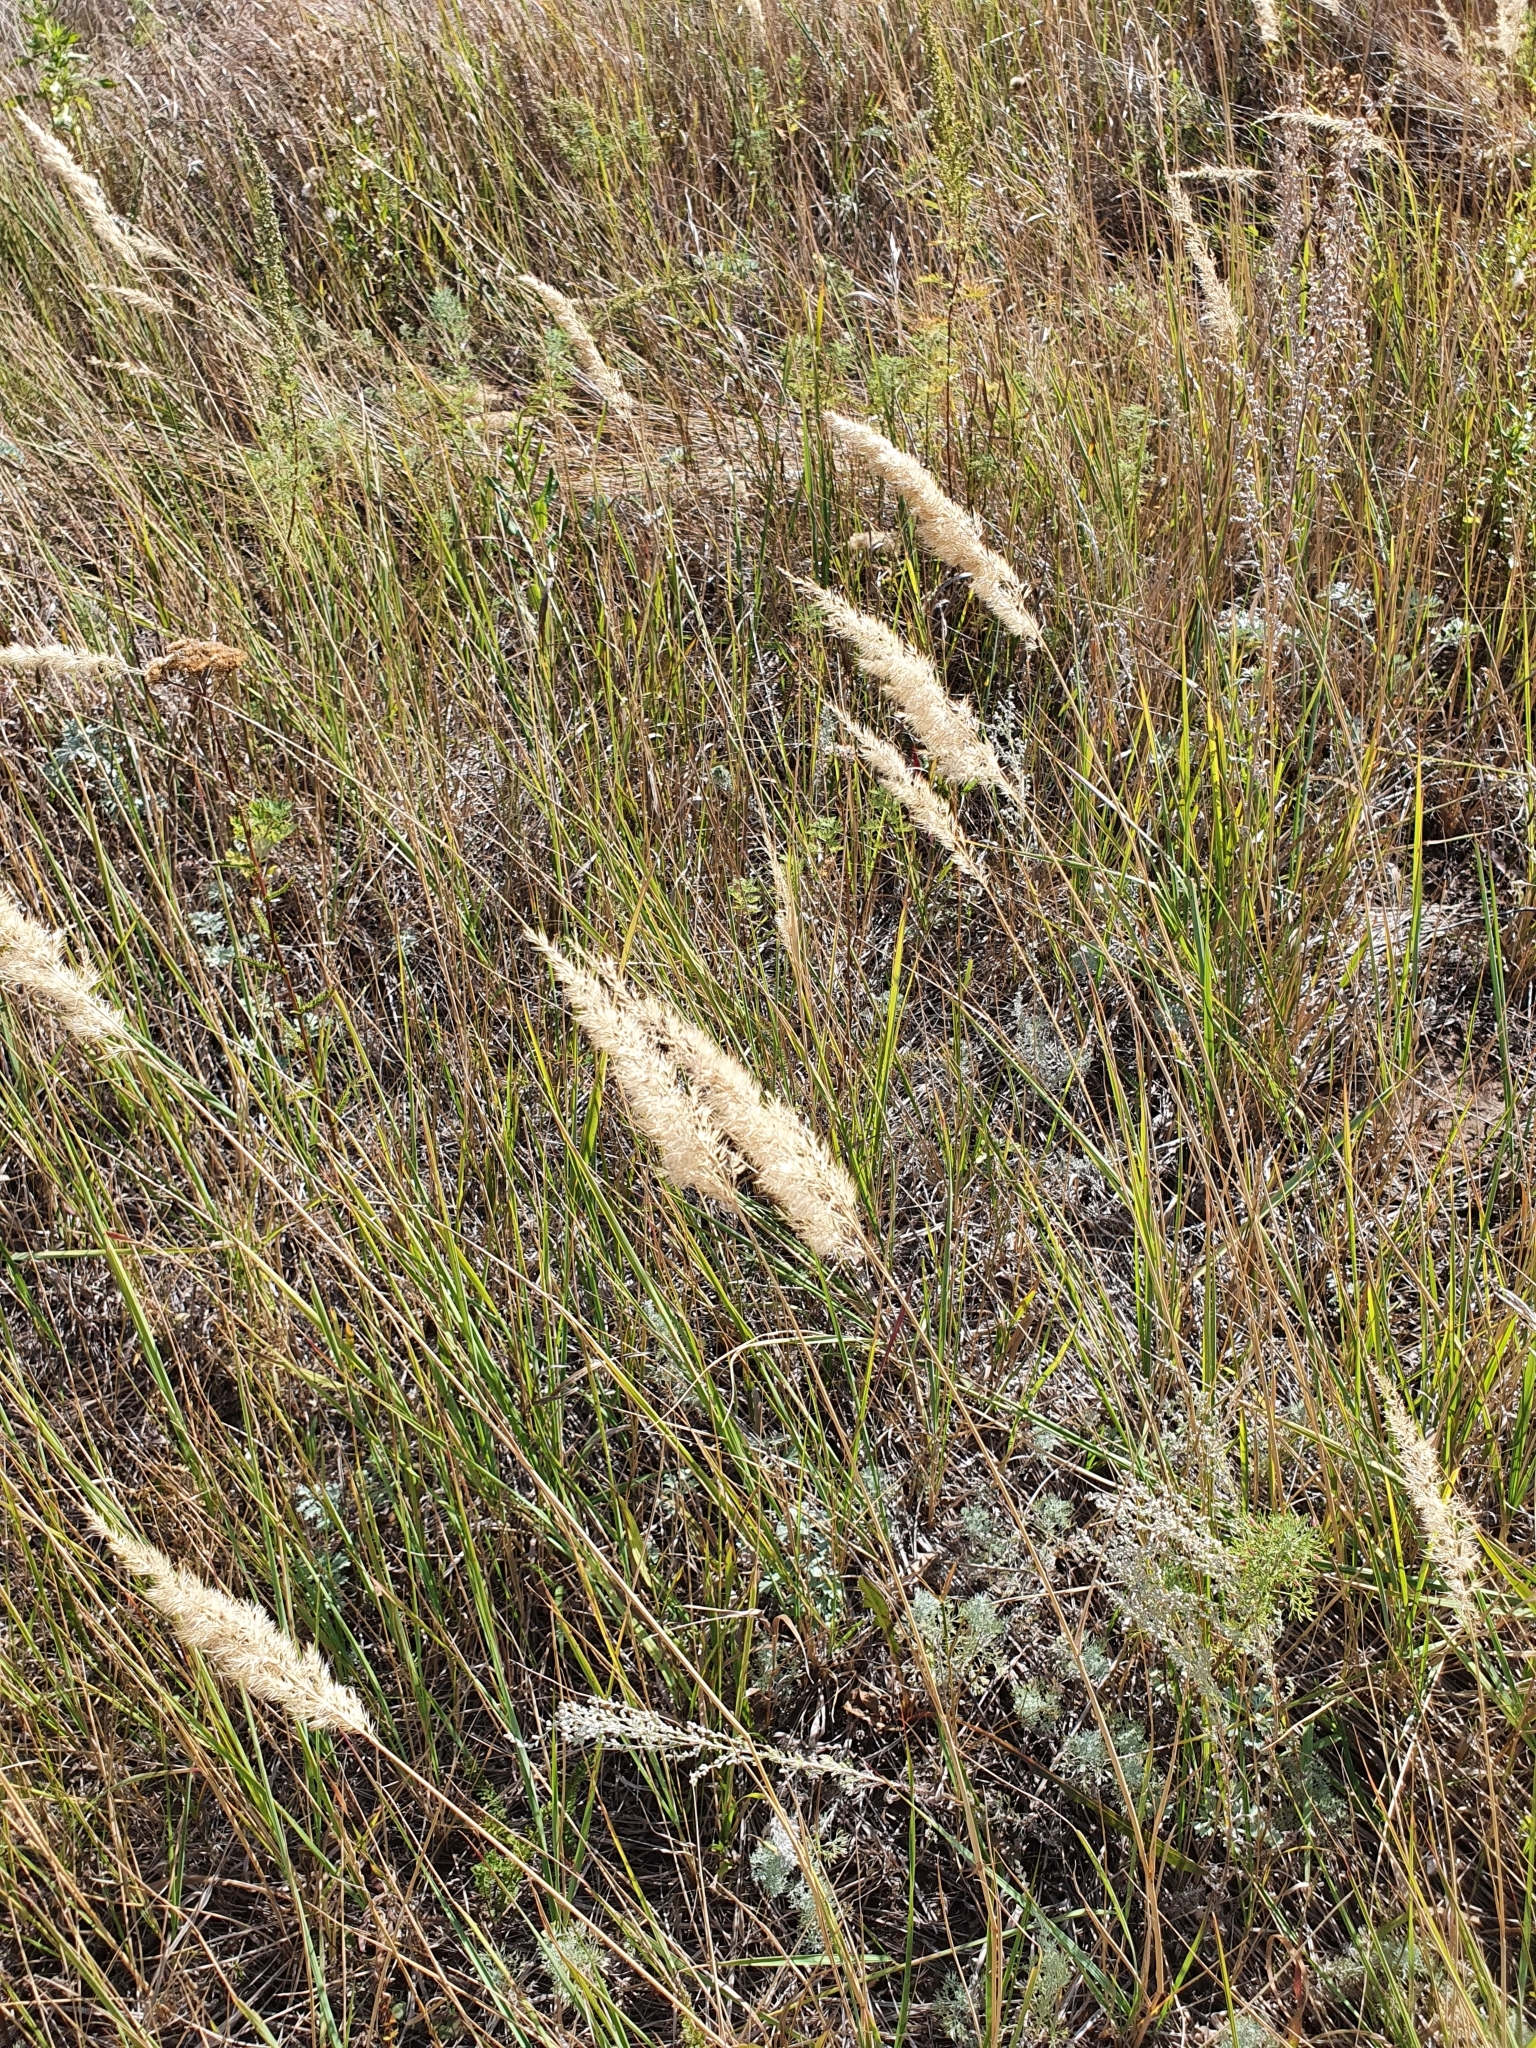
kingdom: Plantae
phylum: Tracheophyta
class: Liliopsida
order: Poales
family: Poaceae
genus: Calamagrostis
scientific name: Calamagrostis epigejos
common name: Wood small-reed
